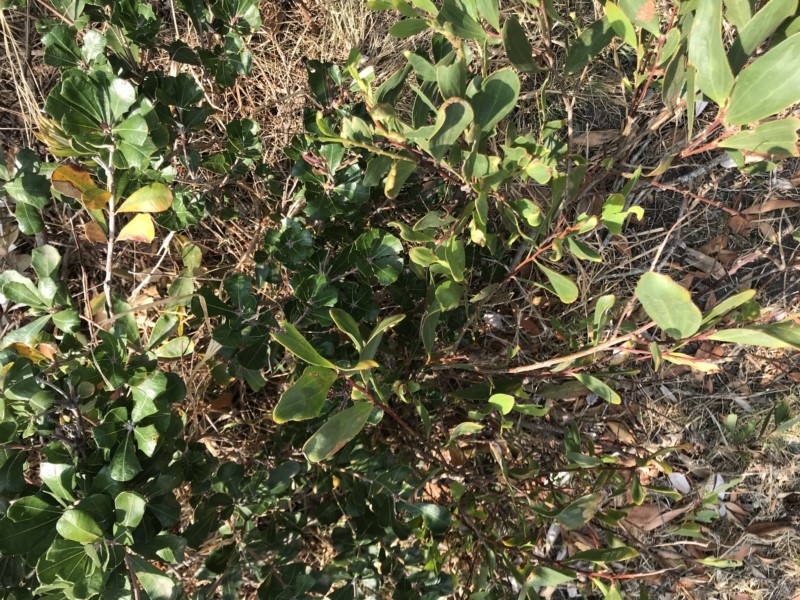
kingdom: Plantae
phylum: Tracheophyta
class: Magnoliopsida
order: Proteales
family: Proteaceae
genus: Banksia
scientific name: Banksia integrifolia
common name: White-honeysuckle
